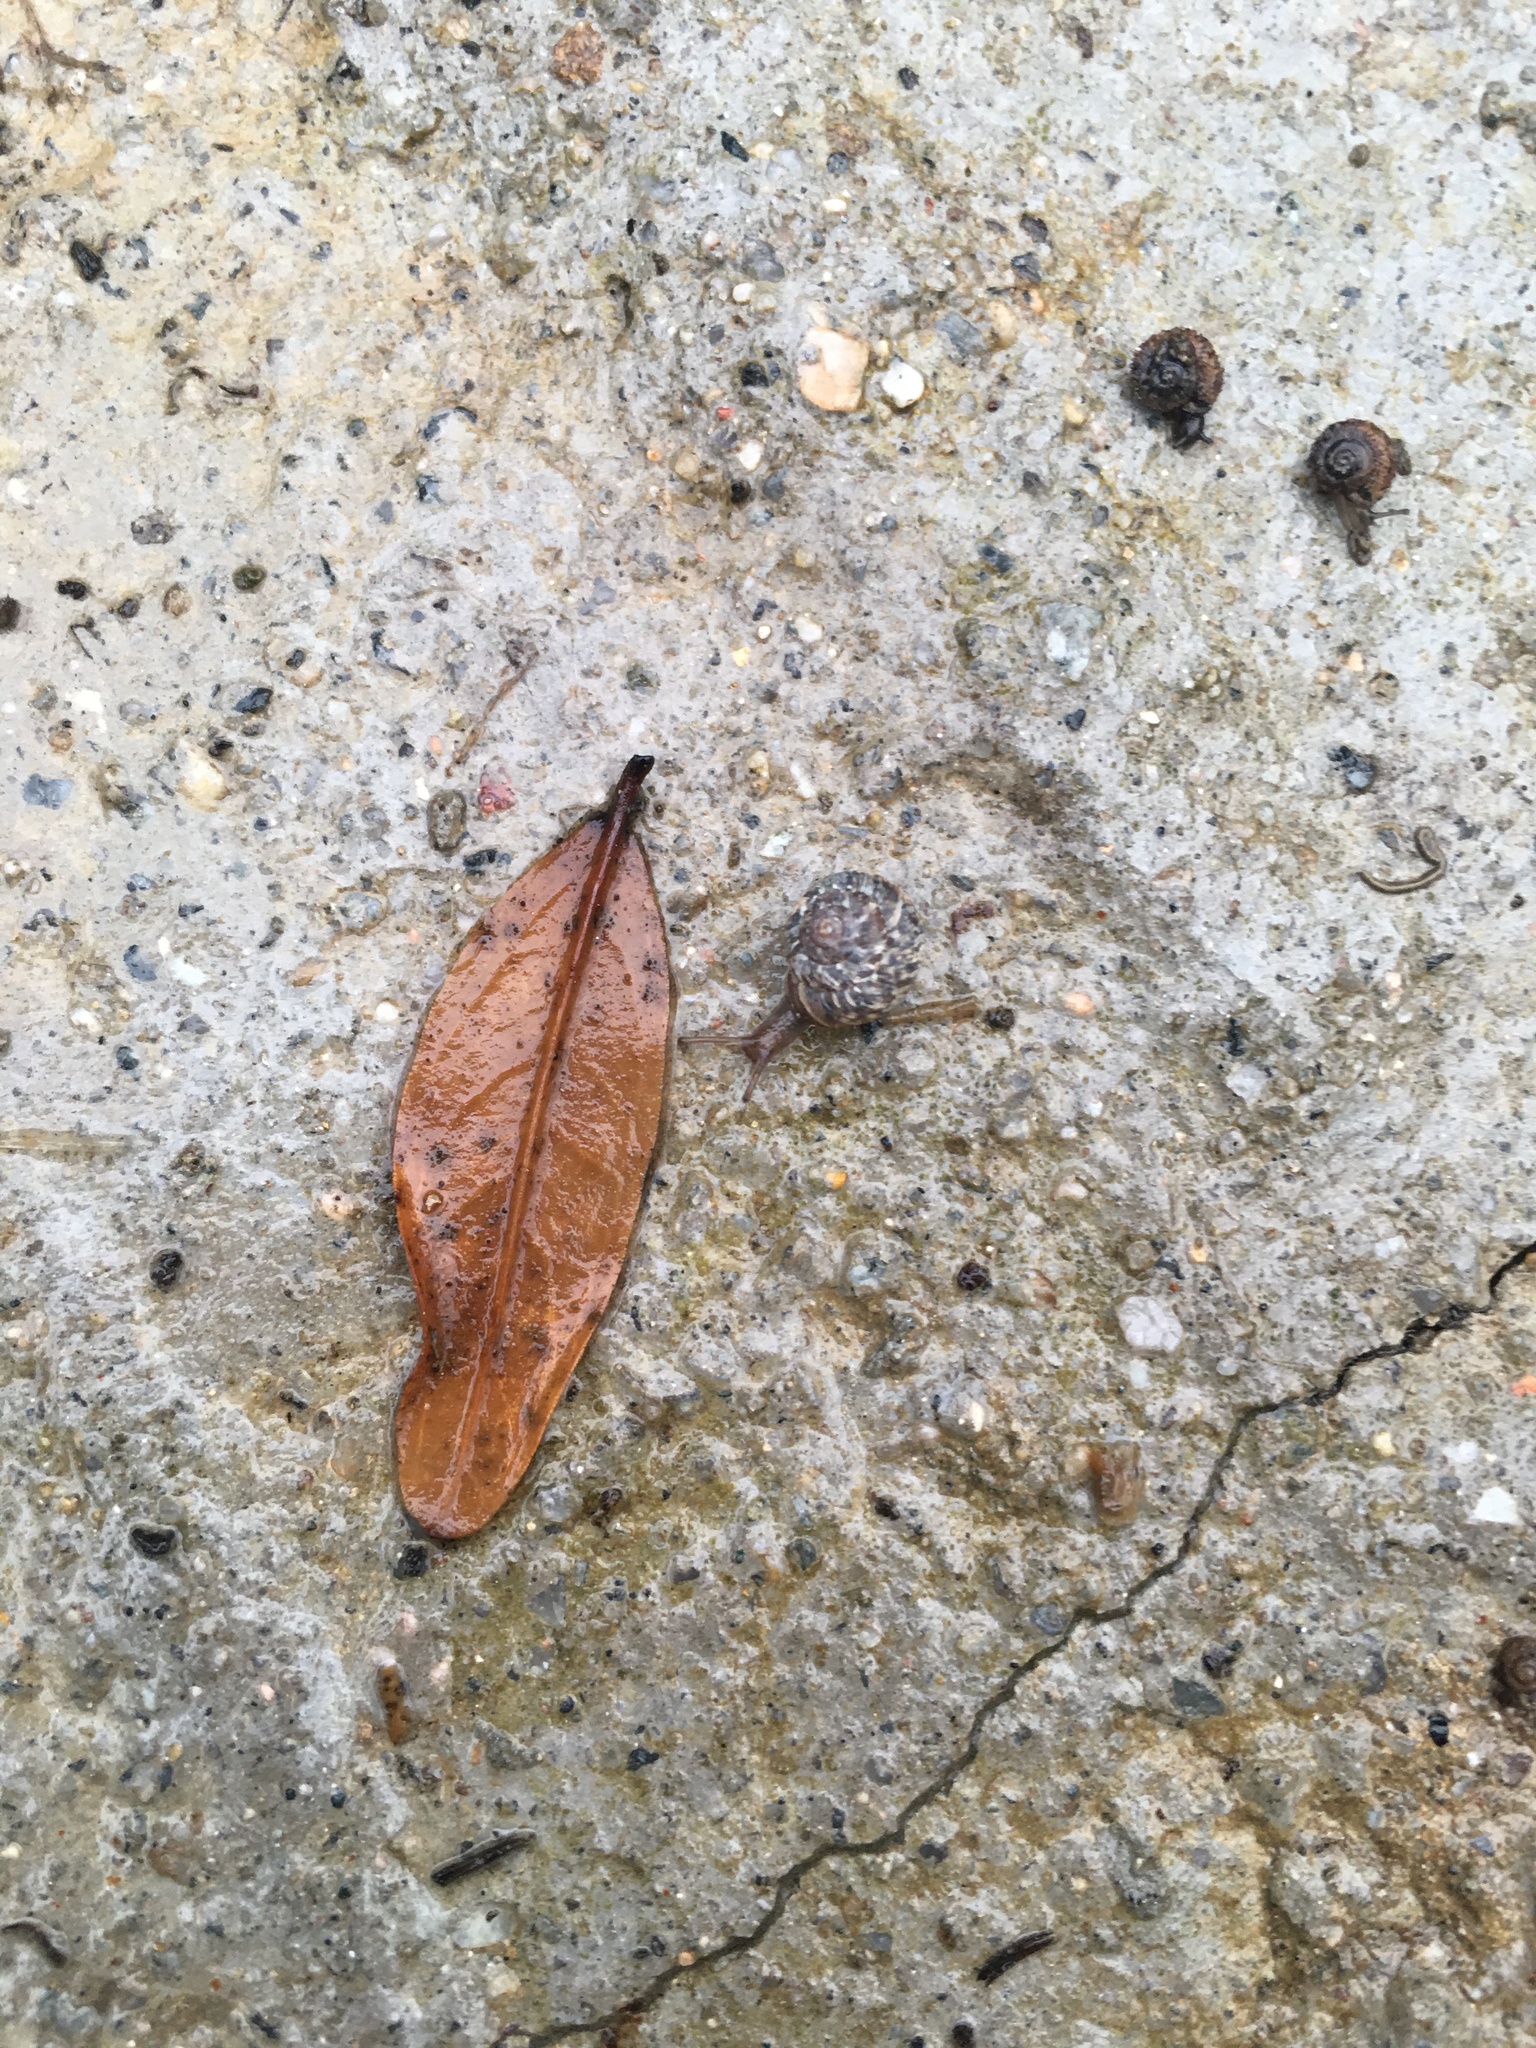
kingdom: Animalia
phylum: Mollusca
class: Gastropoda
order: Stylommatophora
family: Geomitridae
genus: Xerotricha
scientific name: Xerotricha conspurcata
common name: Snail
